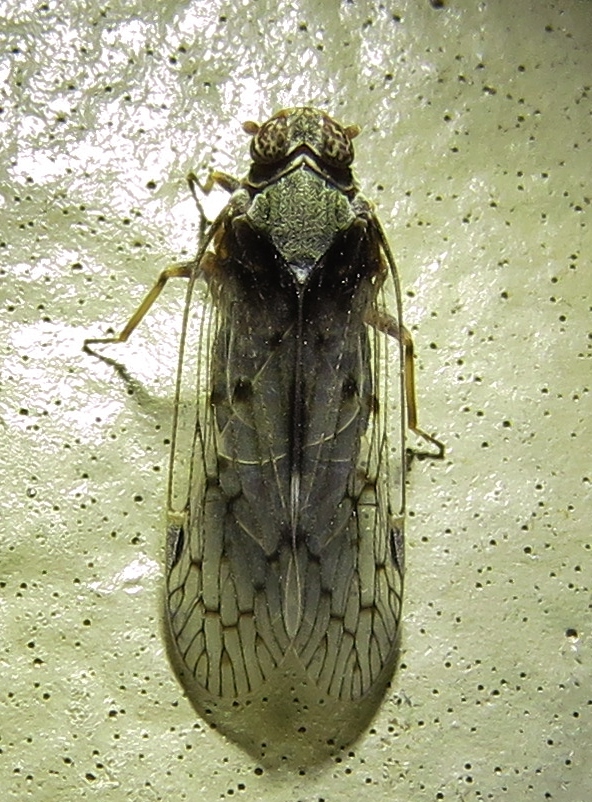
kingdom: Animalia
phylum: Arthropoda
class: Insecta
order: Hemiptera
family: Cixiidae
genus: Melanoliarus
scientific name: Melanoliarus aridus
